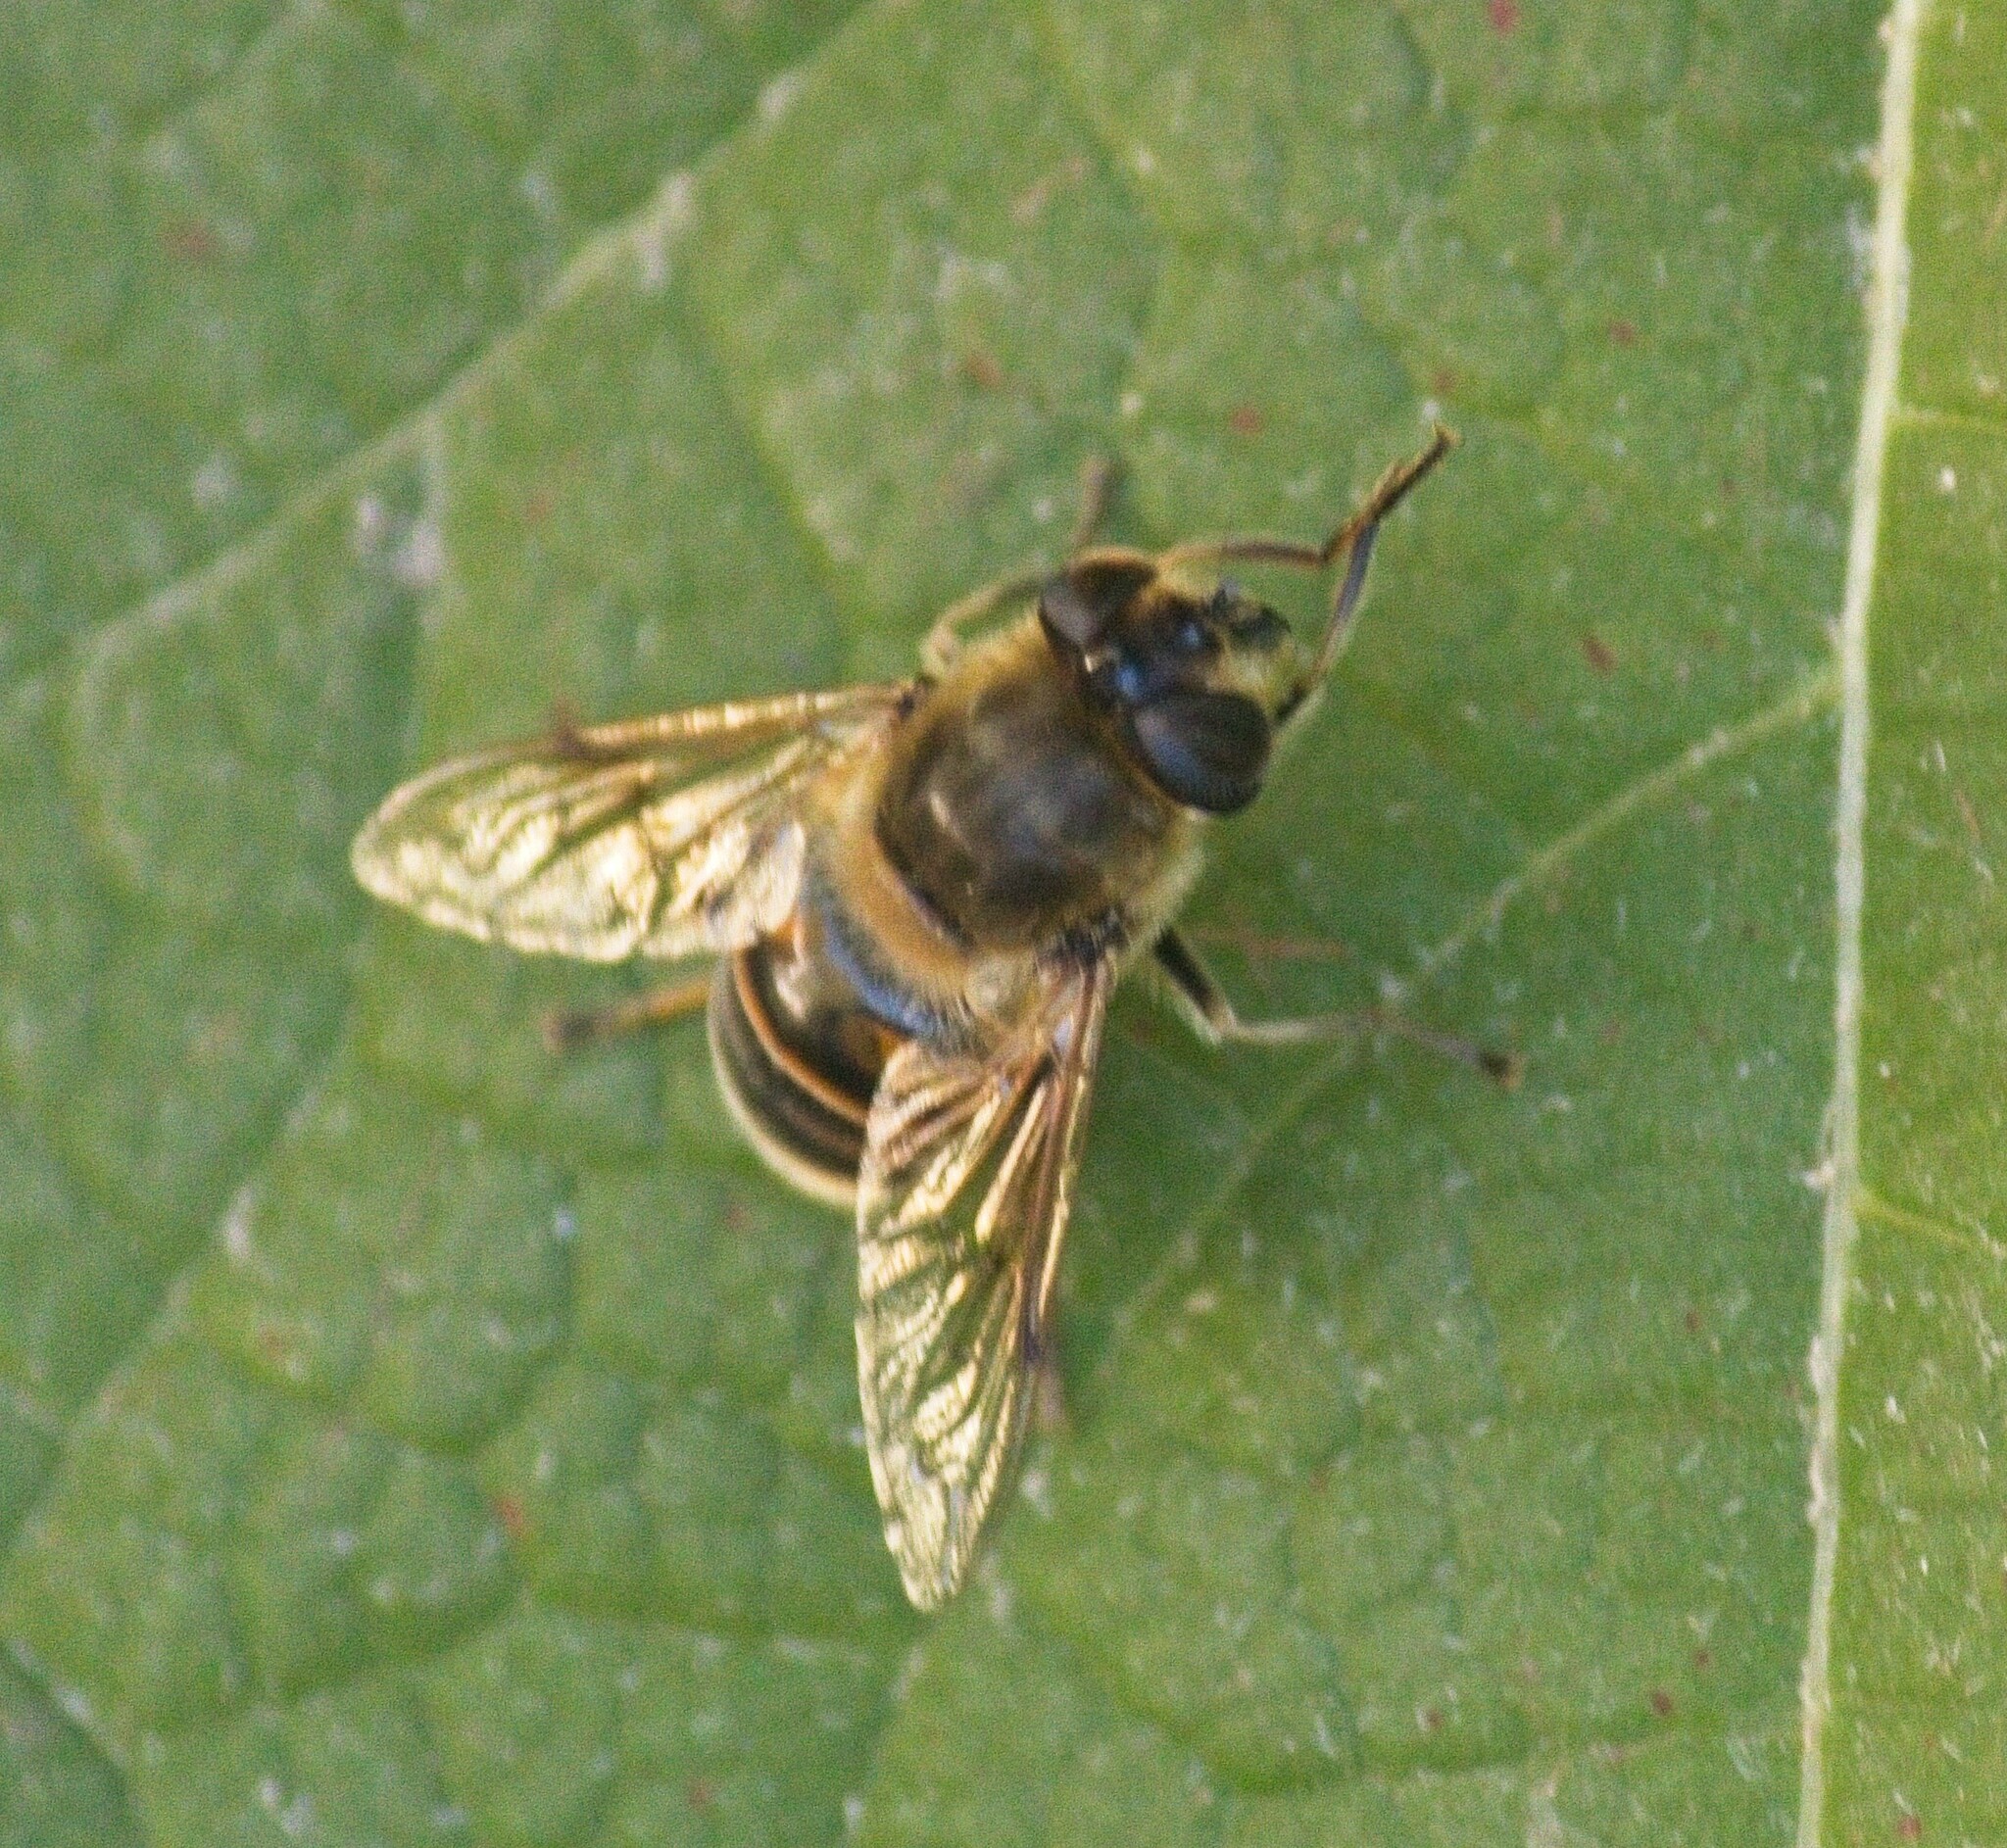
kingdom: Animalia
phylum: Arthropoda
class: Insecta
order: Diptera
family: Syrphidae
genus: Eristalis
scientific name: Eristalis tenax
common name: Drone fly
